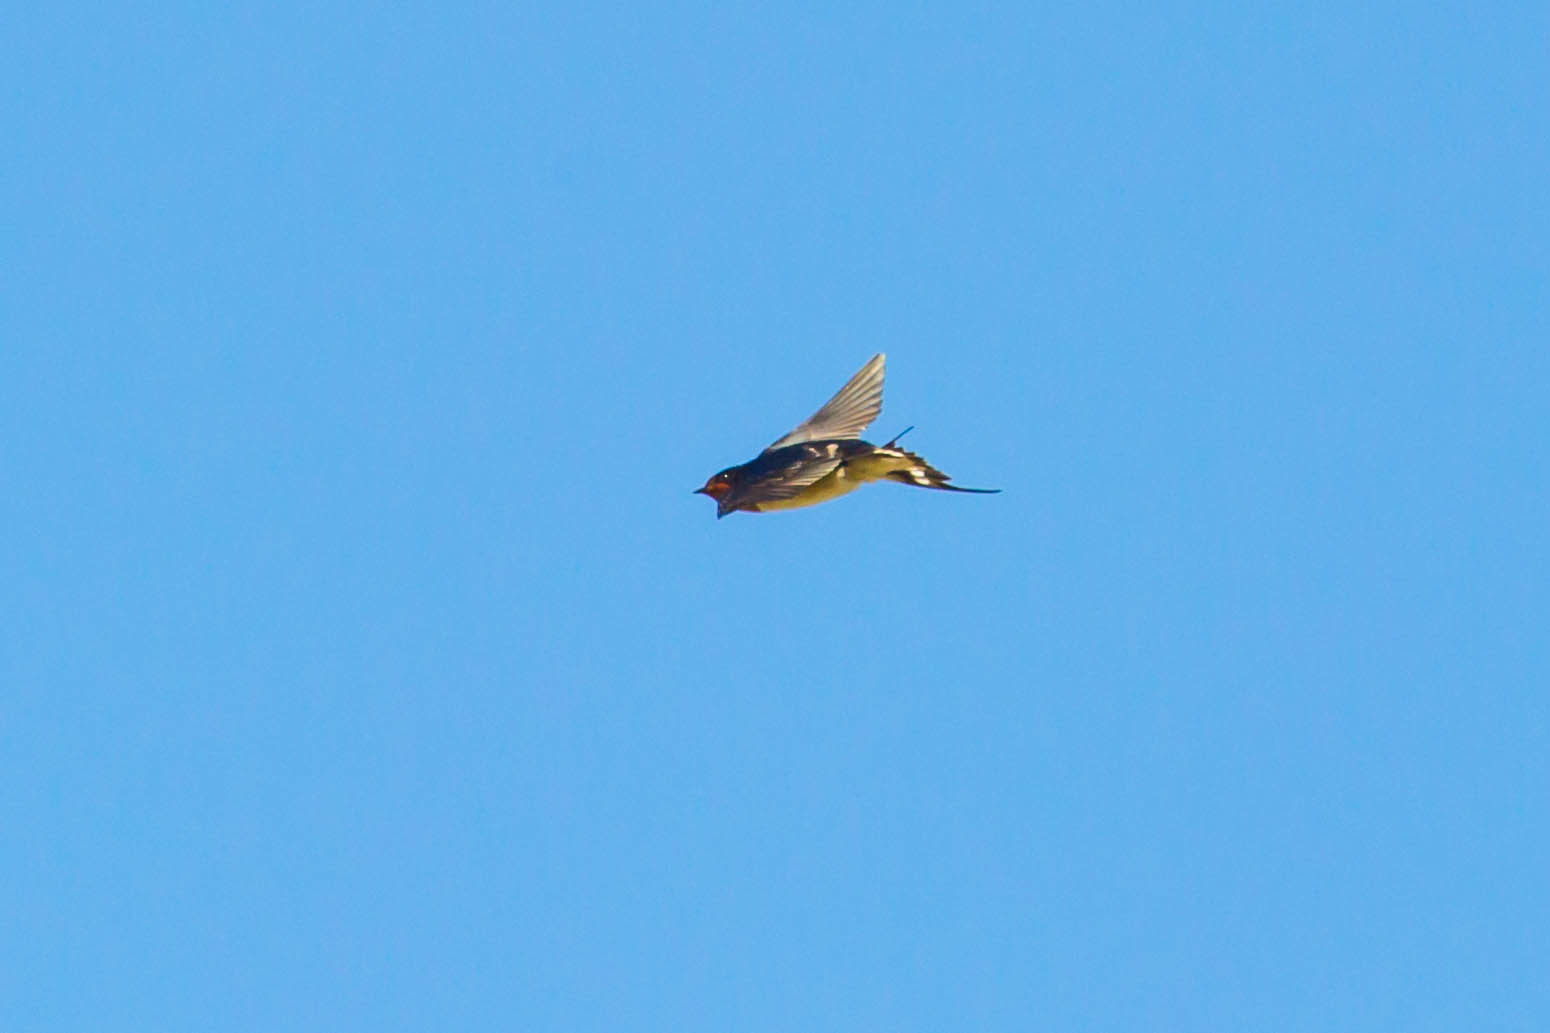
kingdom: Animalia
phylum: Chordata
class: Aves
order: Passeriformes
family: Hirundinidae
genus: Hirundo
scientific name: Hirundo rustica
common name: Barn swallow
